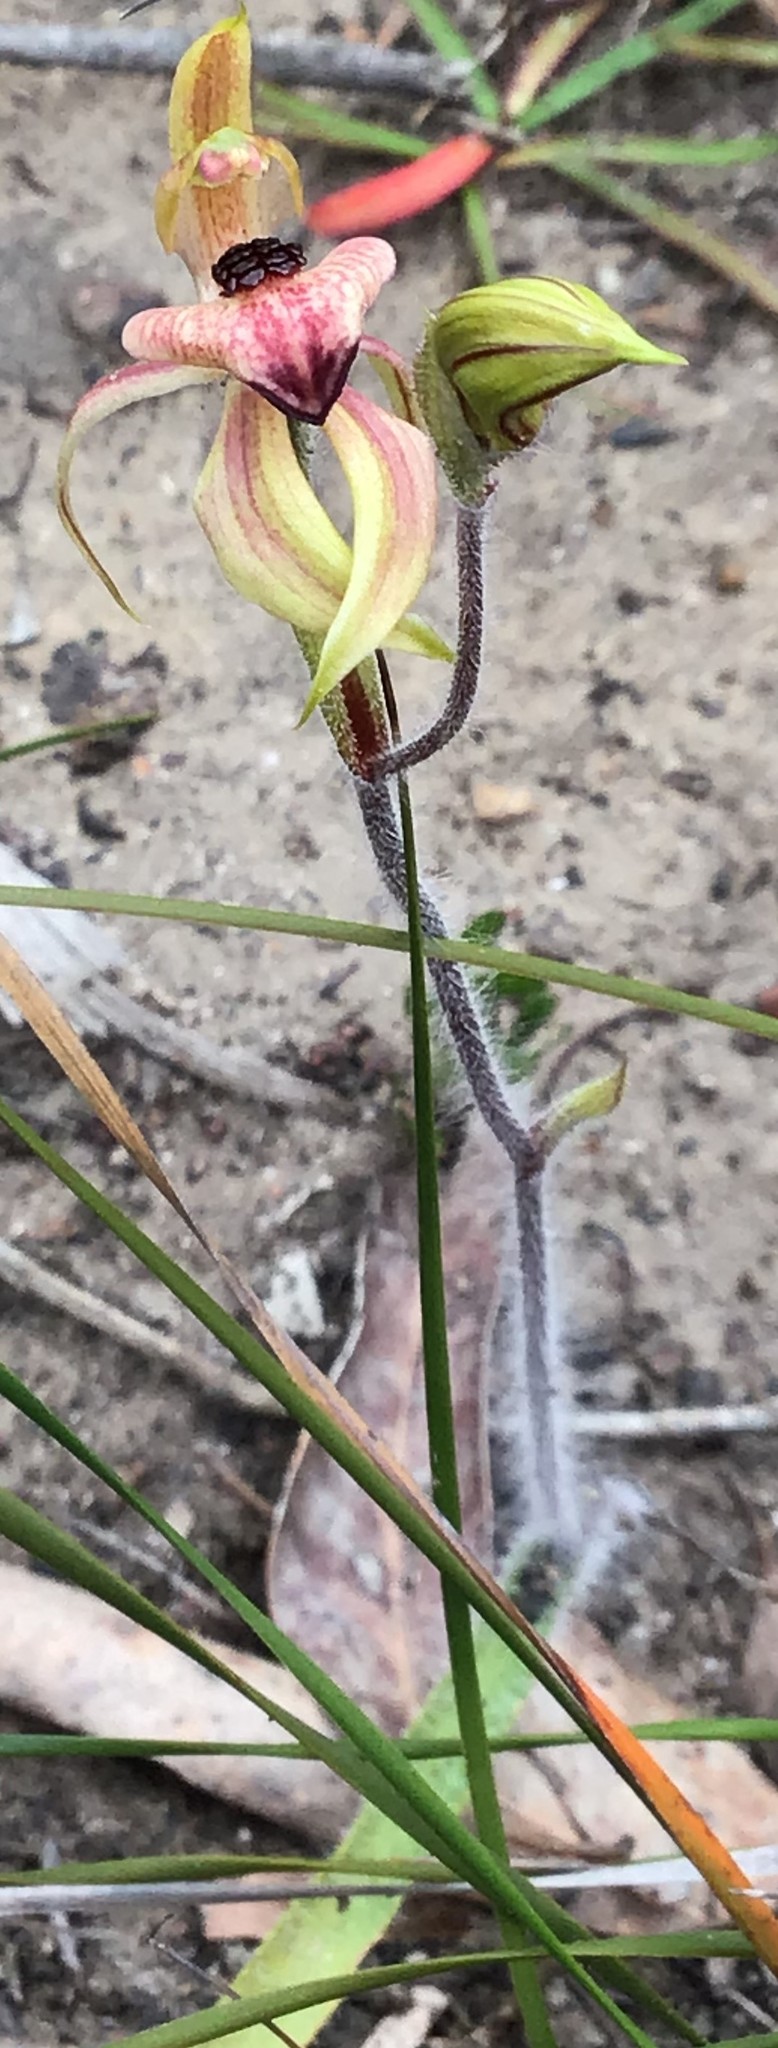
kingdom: Plantae
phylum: Tracheophyta
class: Liliopsida
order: Asparagales
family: Orchidaceae
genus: Caladenia
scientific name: Caladenia cardiochila
